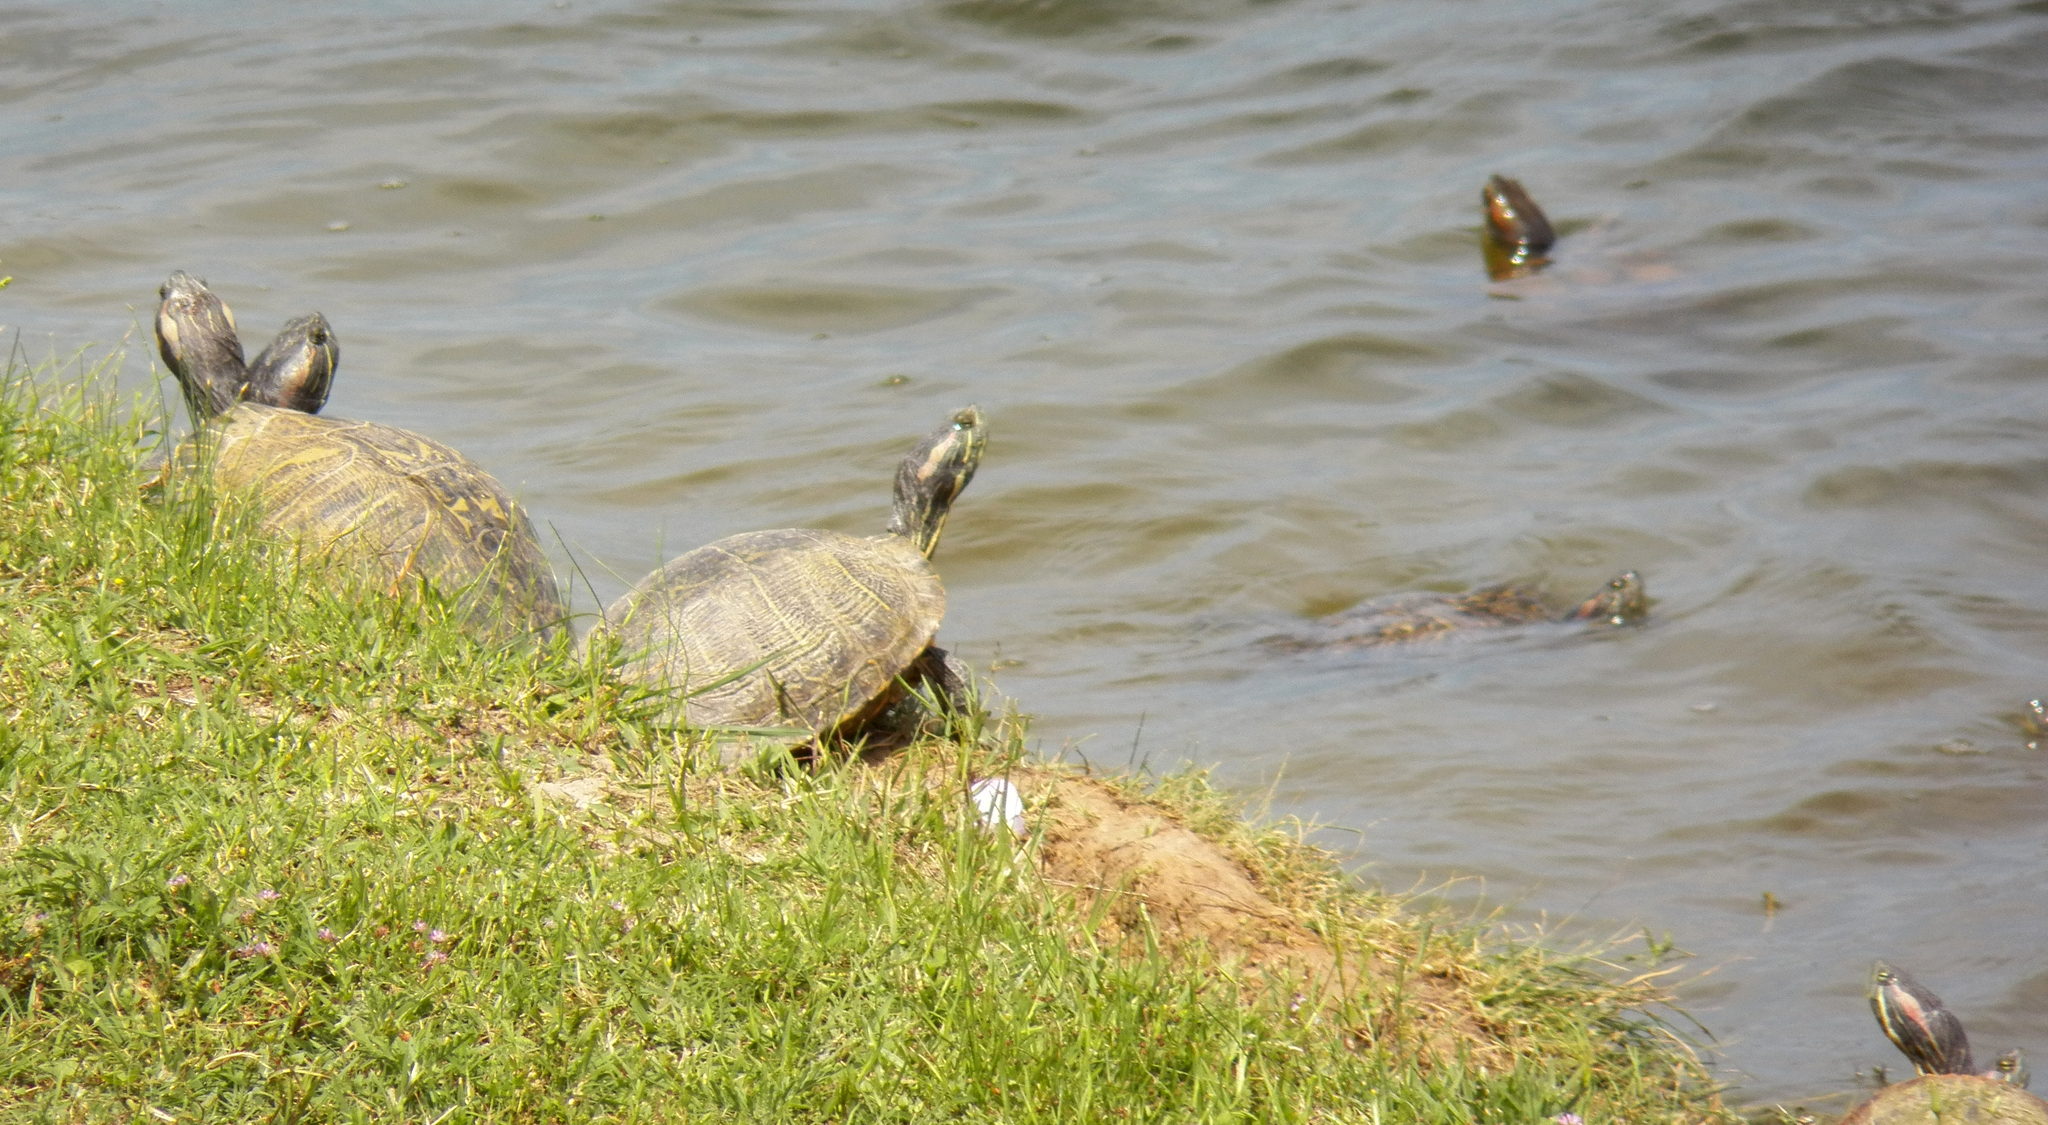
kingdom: Animalia
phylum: Chordata
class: Testudines
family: Emydidae
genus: Trachemys
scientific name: Trachemys scripta
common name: Slider
